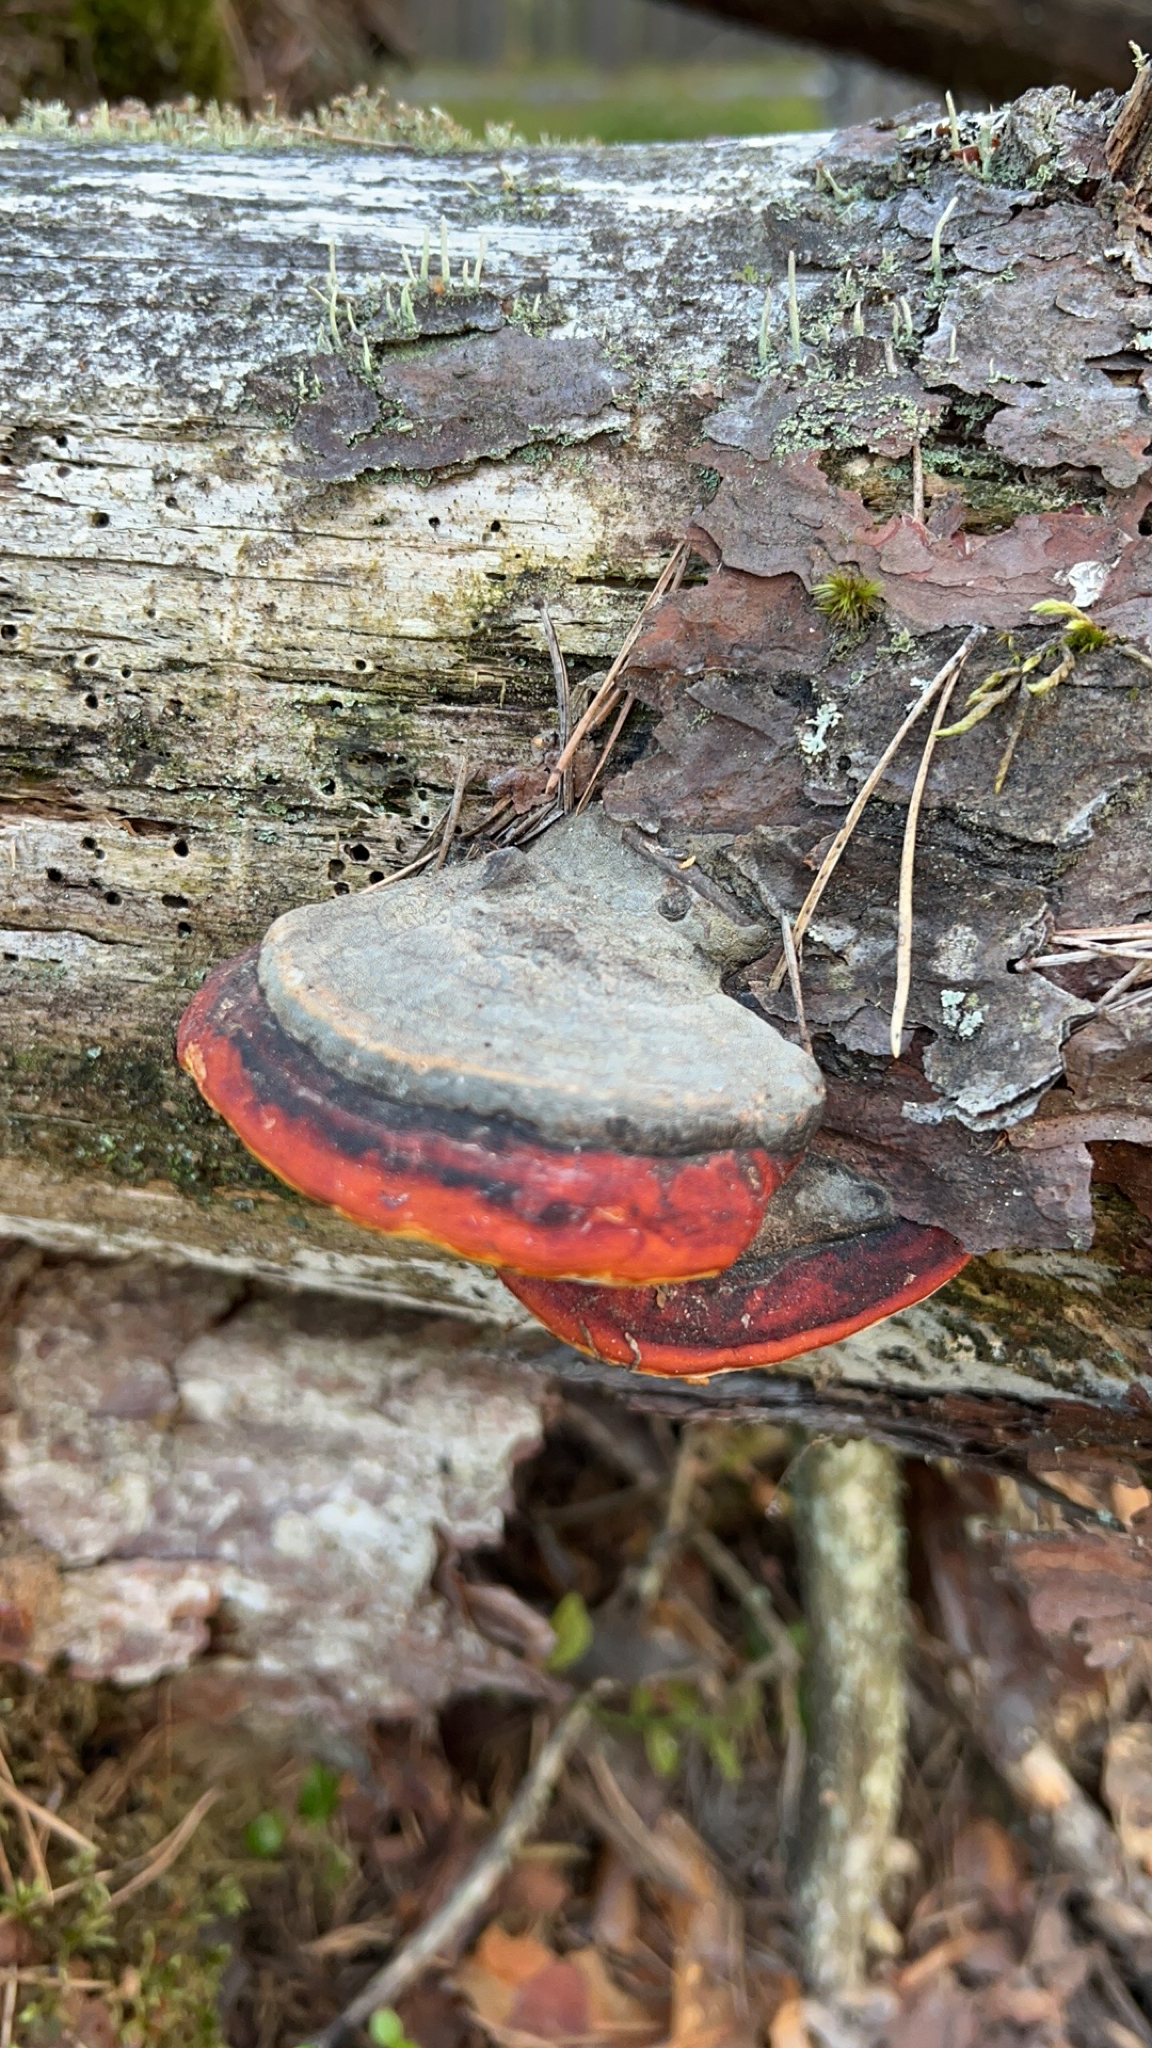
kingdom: Fungi
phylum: Basidiomycota
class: Agaricomycetes
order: Polyporales
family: Fomitopsidaceae
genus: Fomitopsis
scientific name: Fomitopsis pinicola
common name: Red-belted bracket
